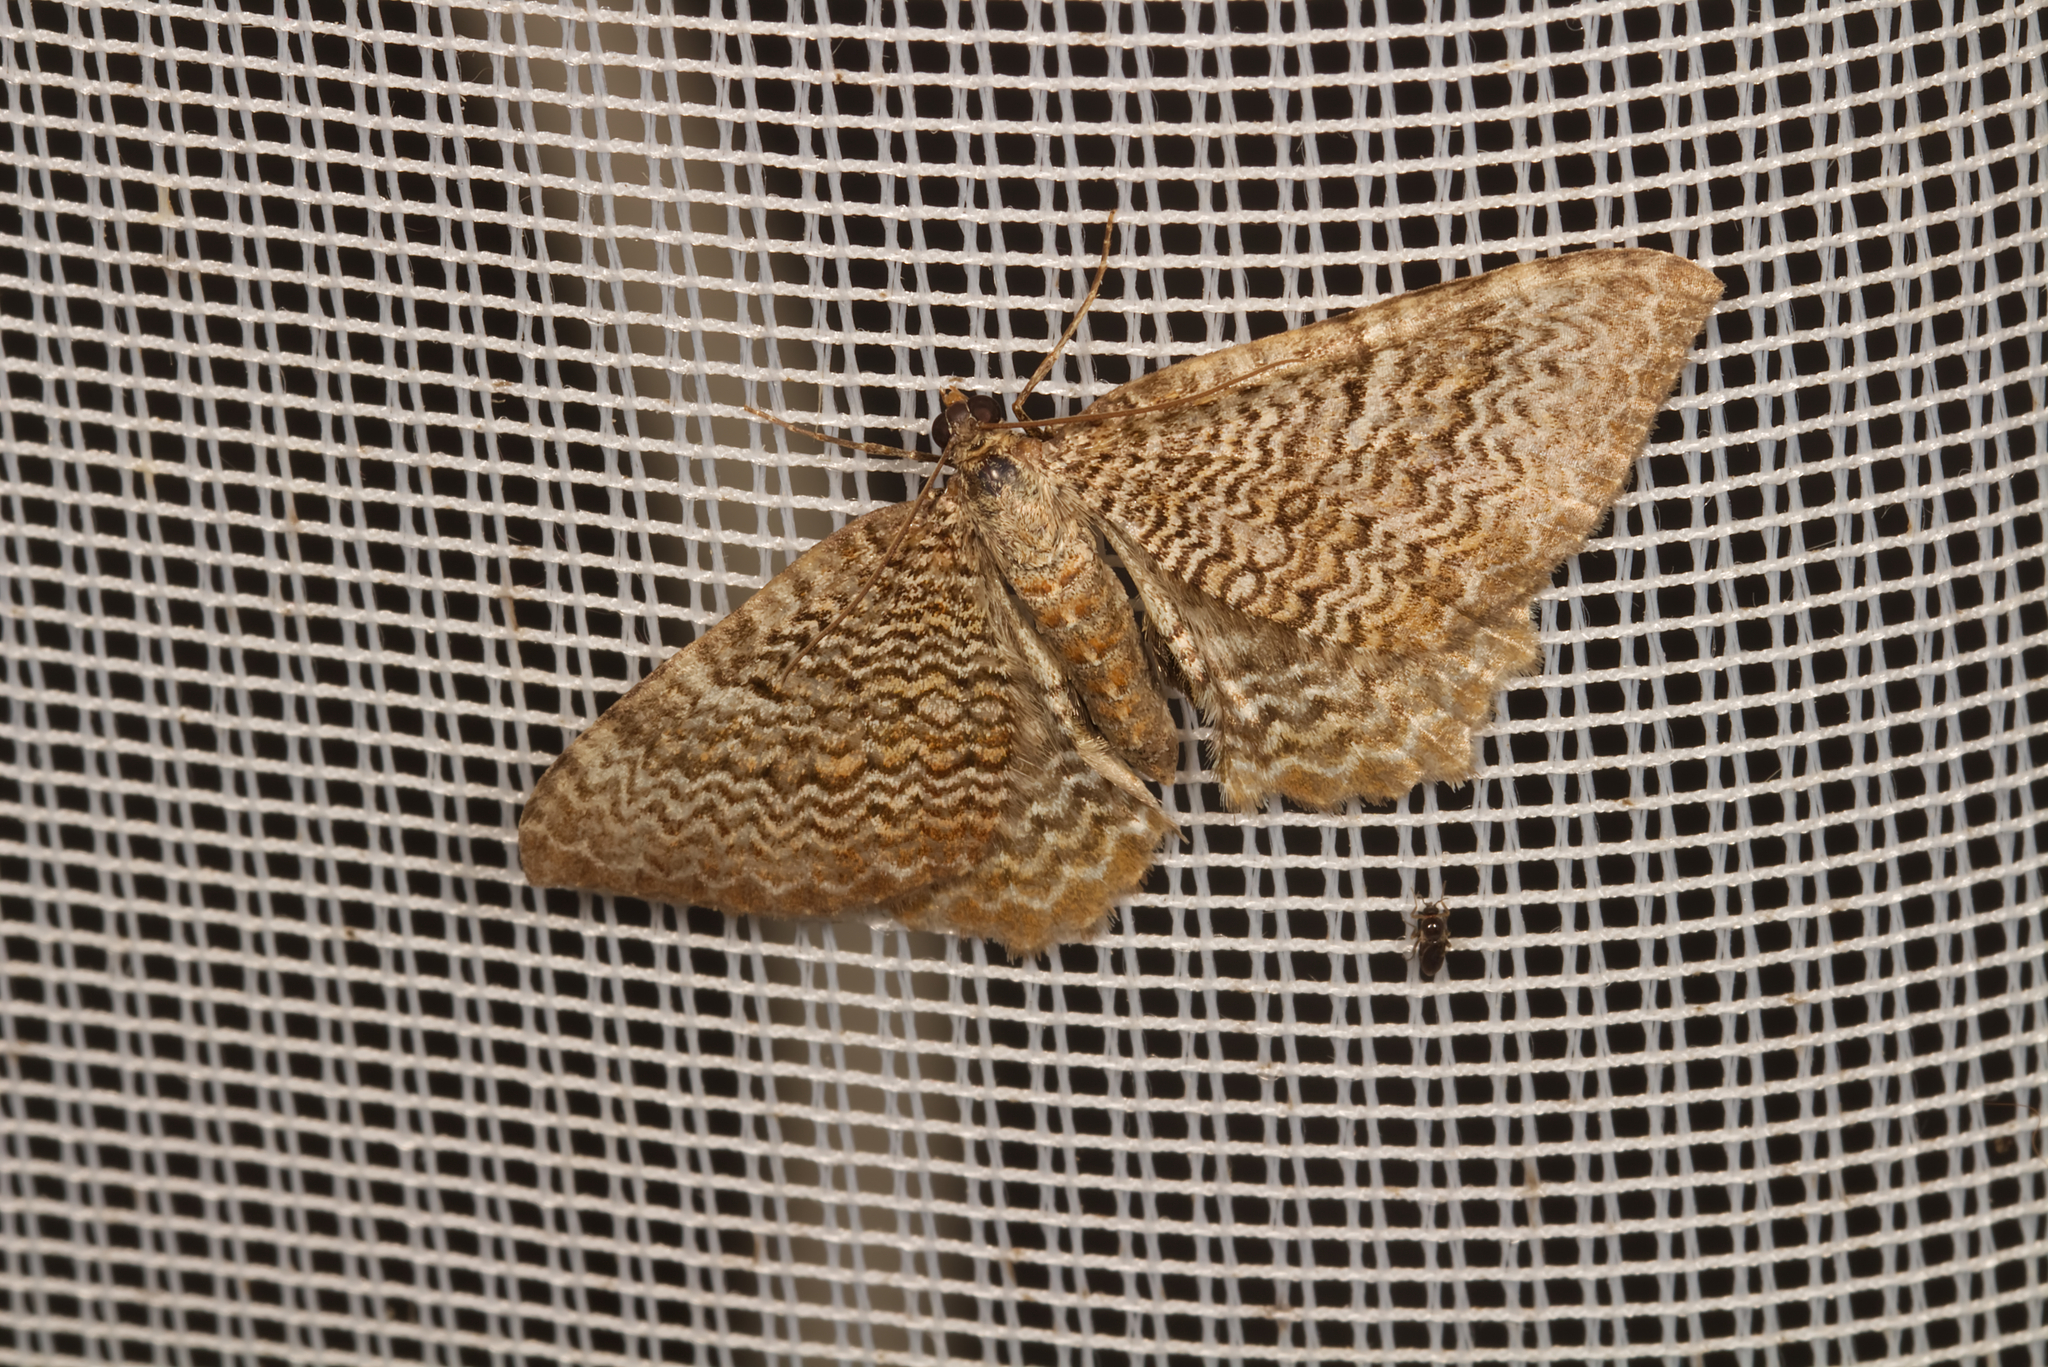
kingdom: Animalia
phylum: Arthropoda
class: Insecta
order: Lepidoptera
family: Geometridae
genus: Rheumaptera
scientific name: Rheumaptera undulata
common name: Scallop shell
